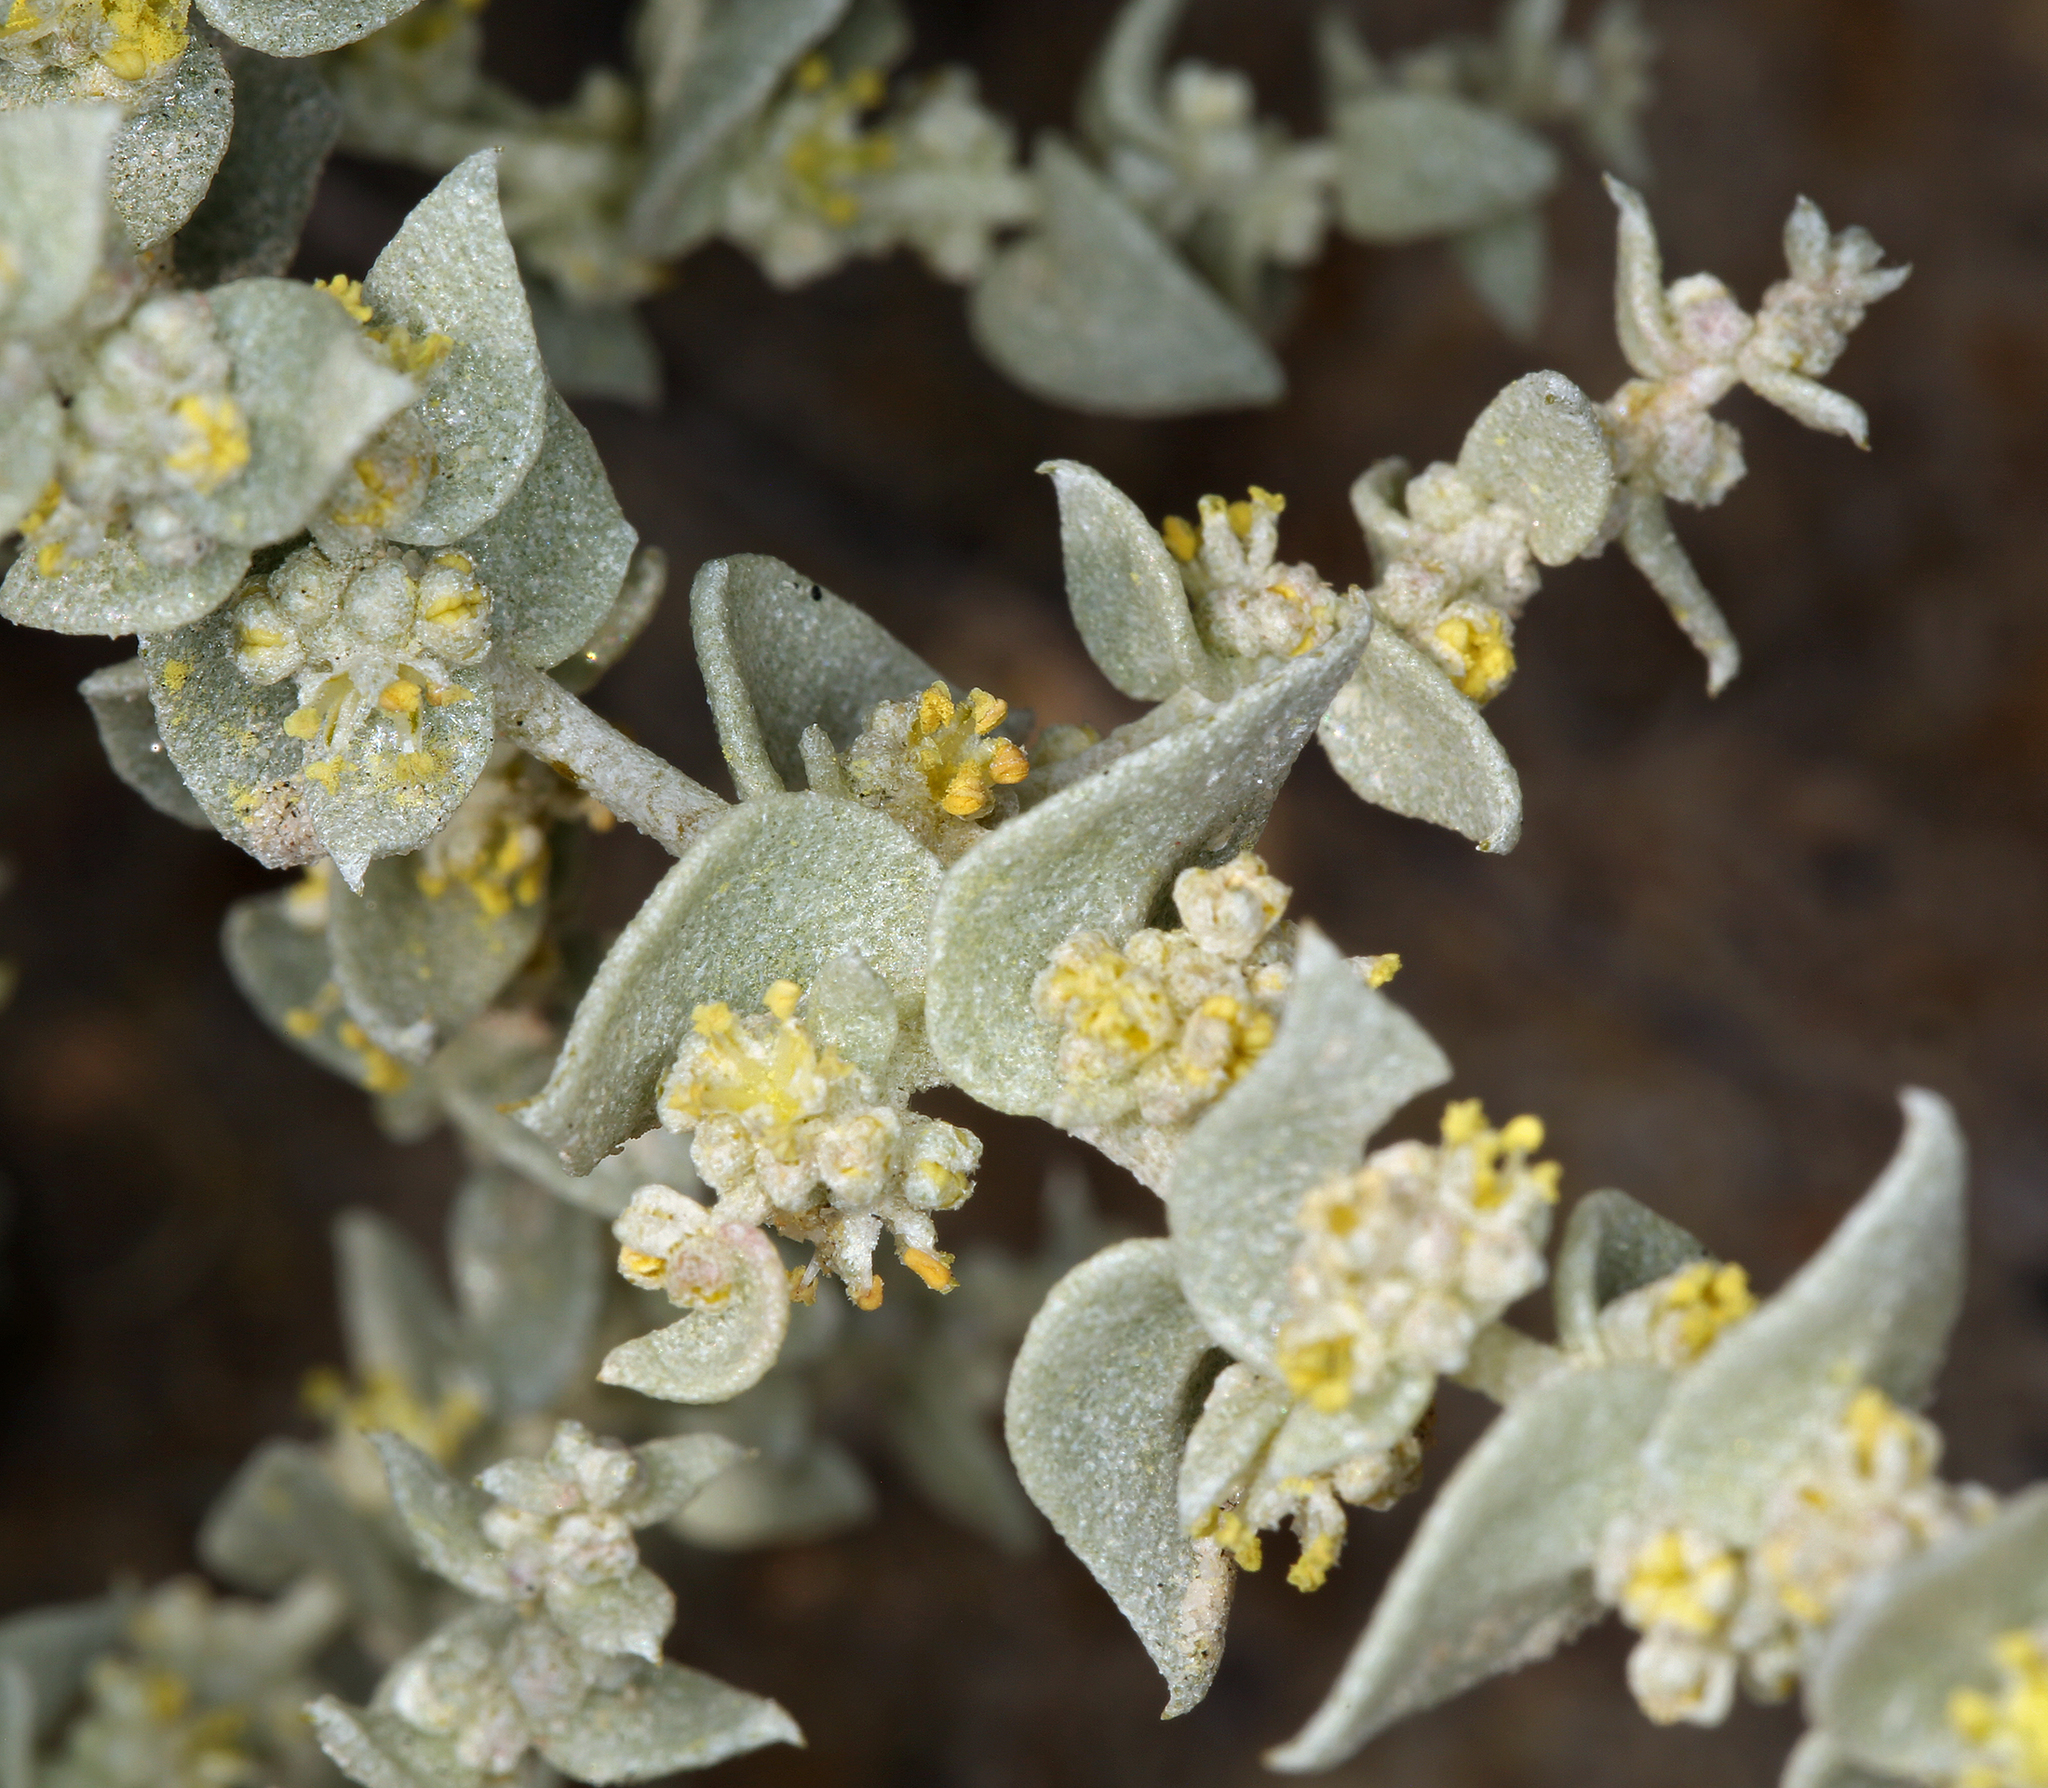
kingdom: Plantae
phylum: Tracheophyta
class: Magnoliopsida
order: Caryophyllales
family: Amaranthaceae
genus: Atriplex
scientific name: Atriplex parryi
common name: Parry's saltbush
